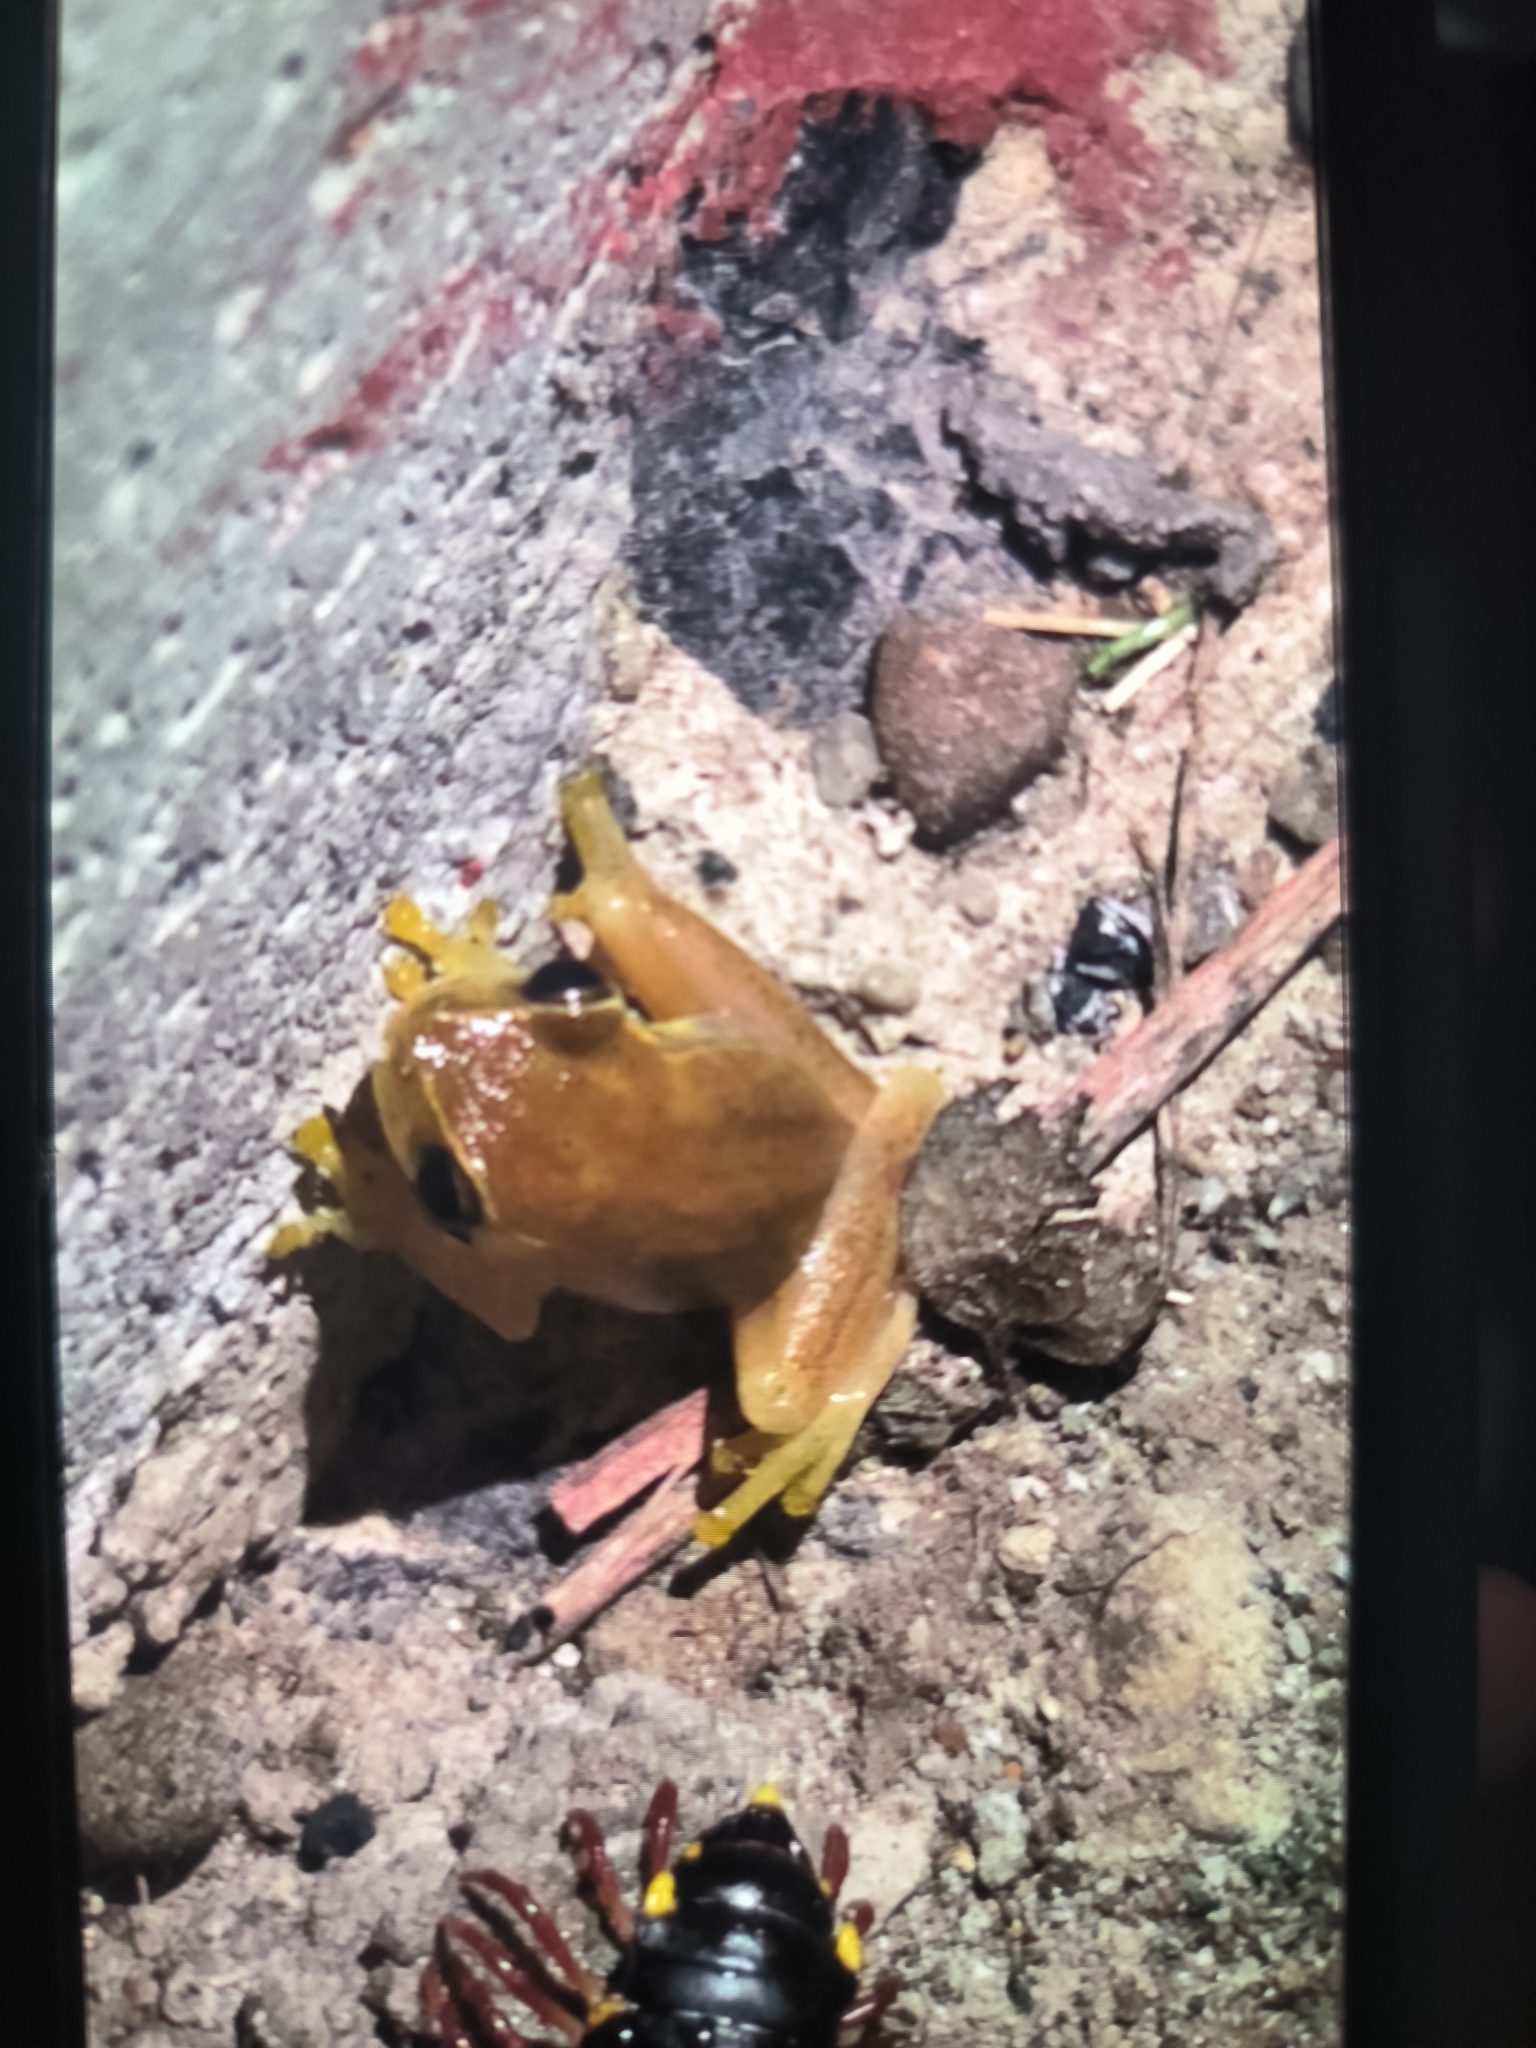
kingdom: Animalia
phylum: Chordata
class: Amphibia
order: Anura
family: Hylidae
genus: Dendropsophus
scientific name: Dendropsophus microcephalus
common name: Small-headed treefrog
